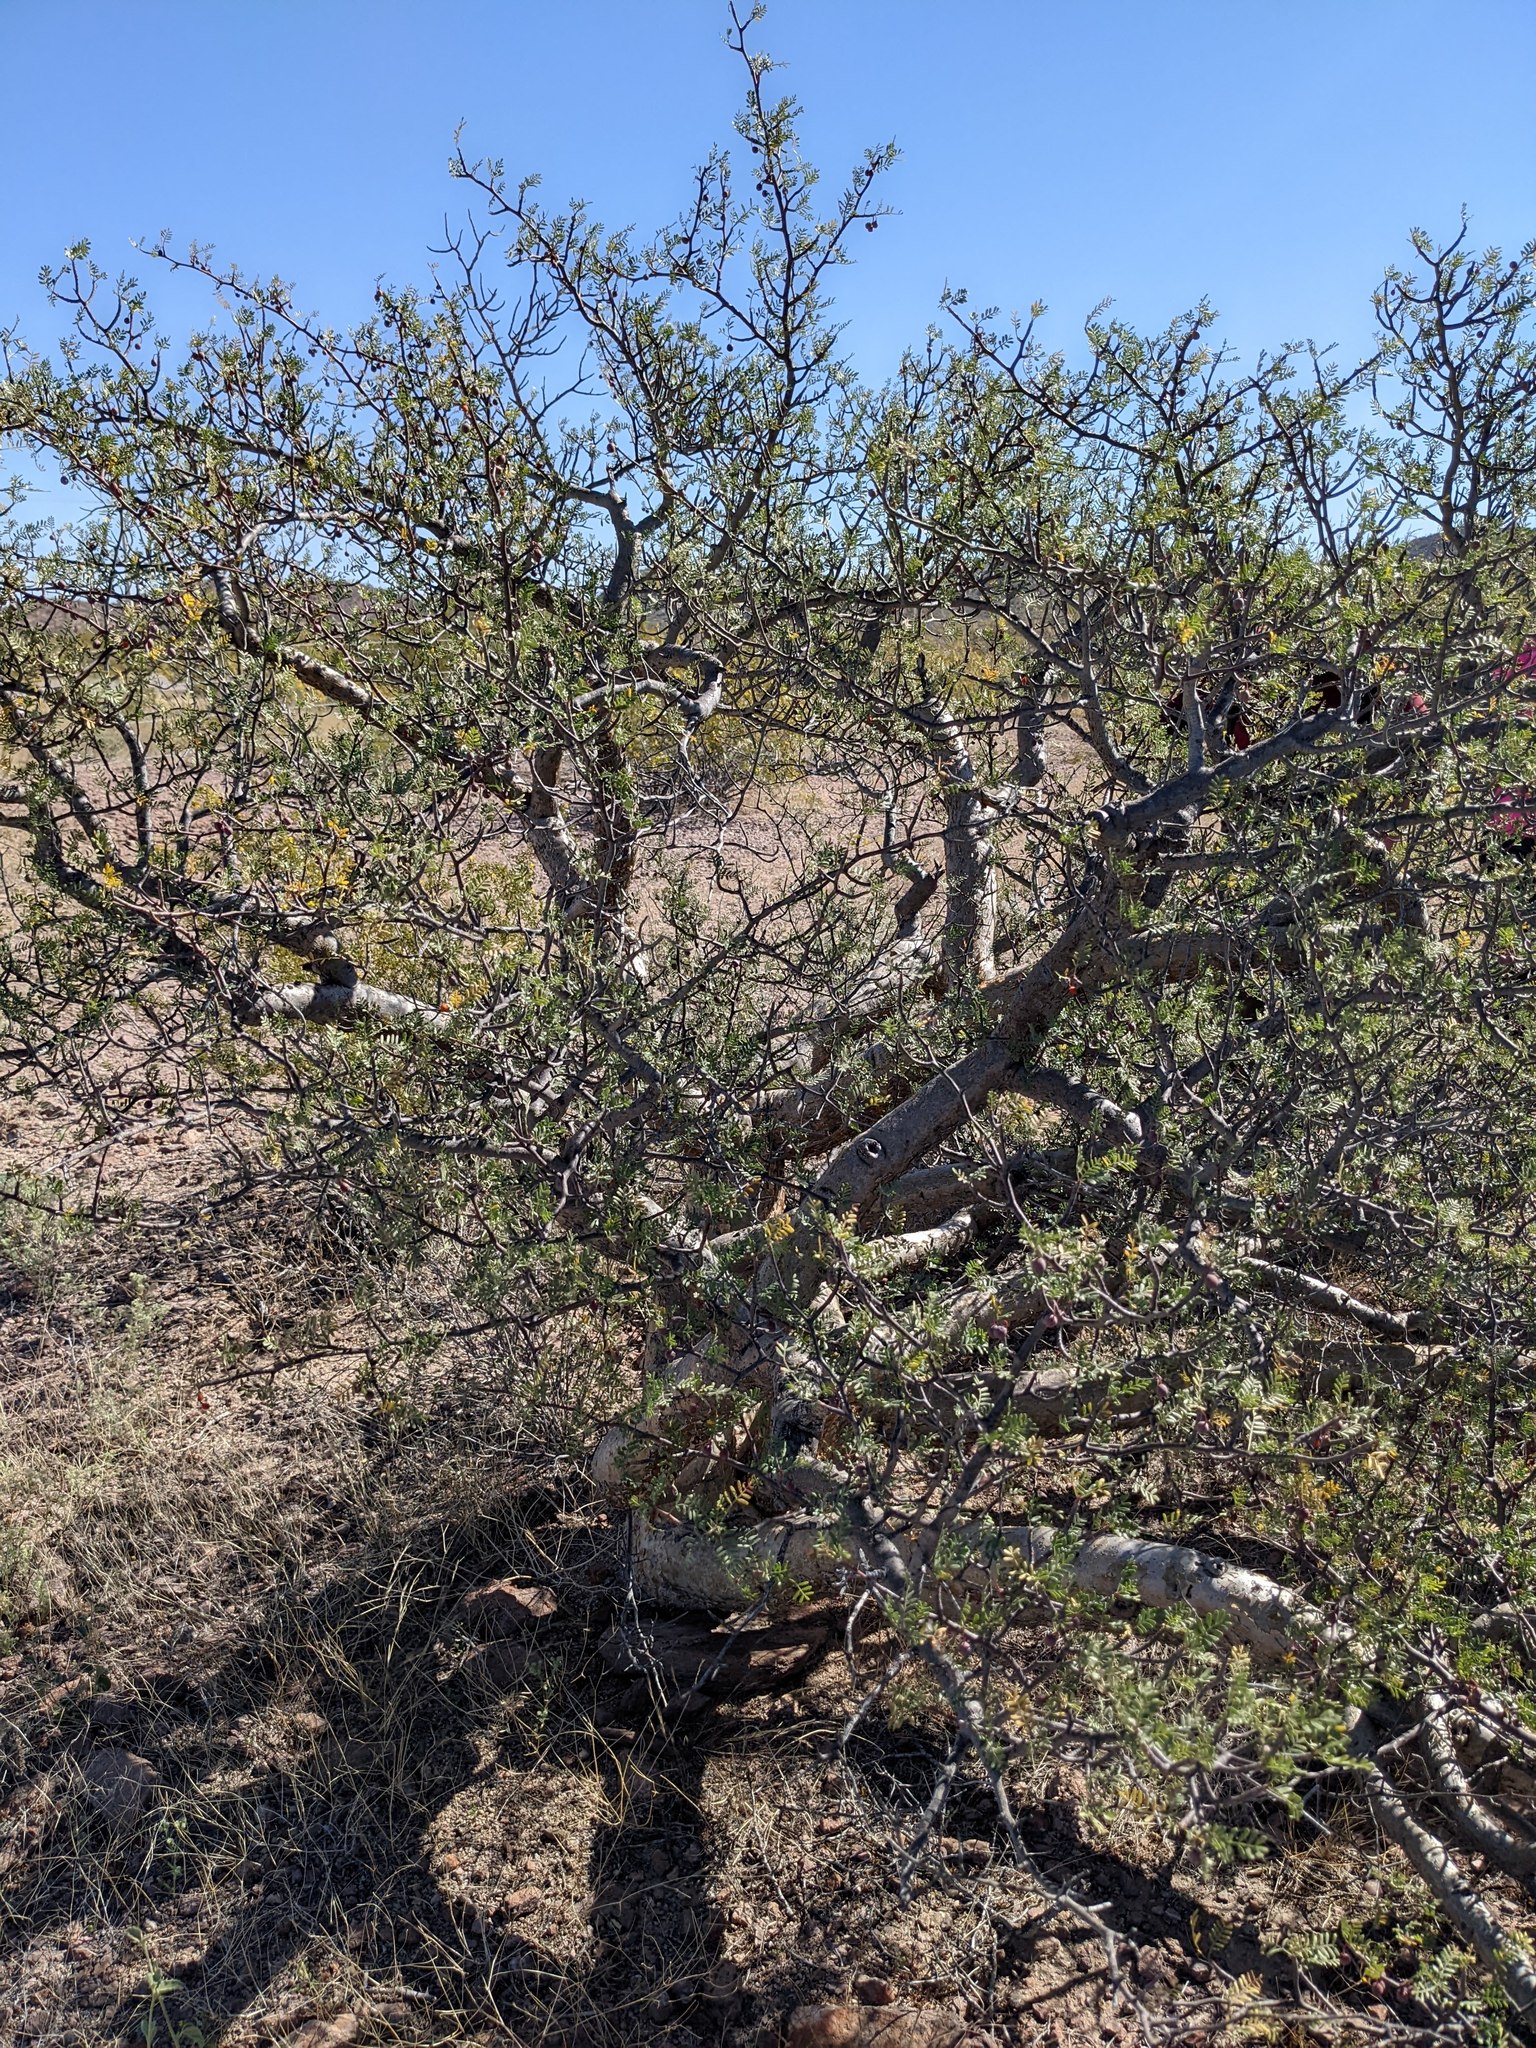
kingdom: Plantae
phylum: Tracheophyta
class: Magnoliopsida
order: Sapindales
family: Burseraceae
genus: Bursera
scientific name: Bursera microphylla
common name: Elephant tree
